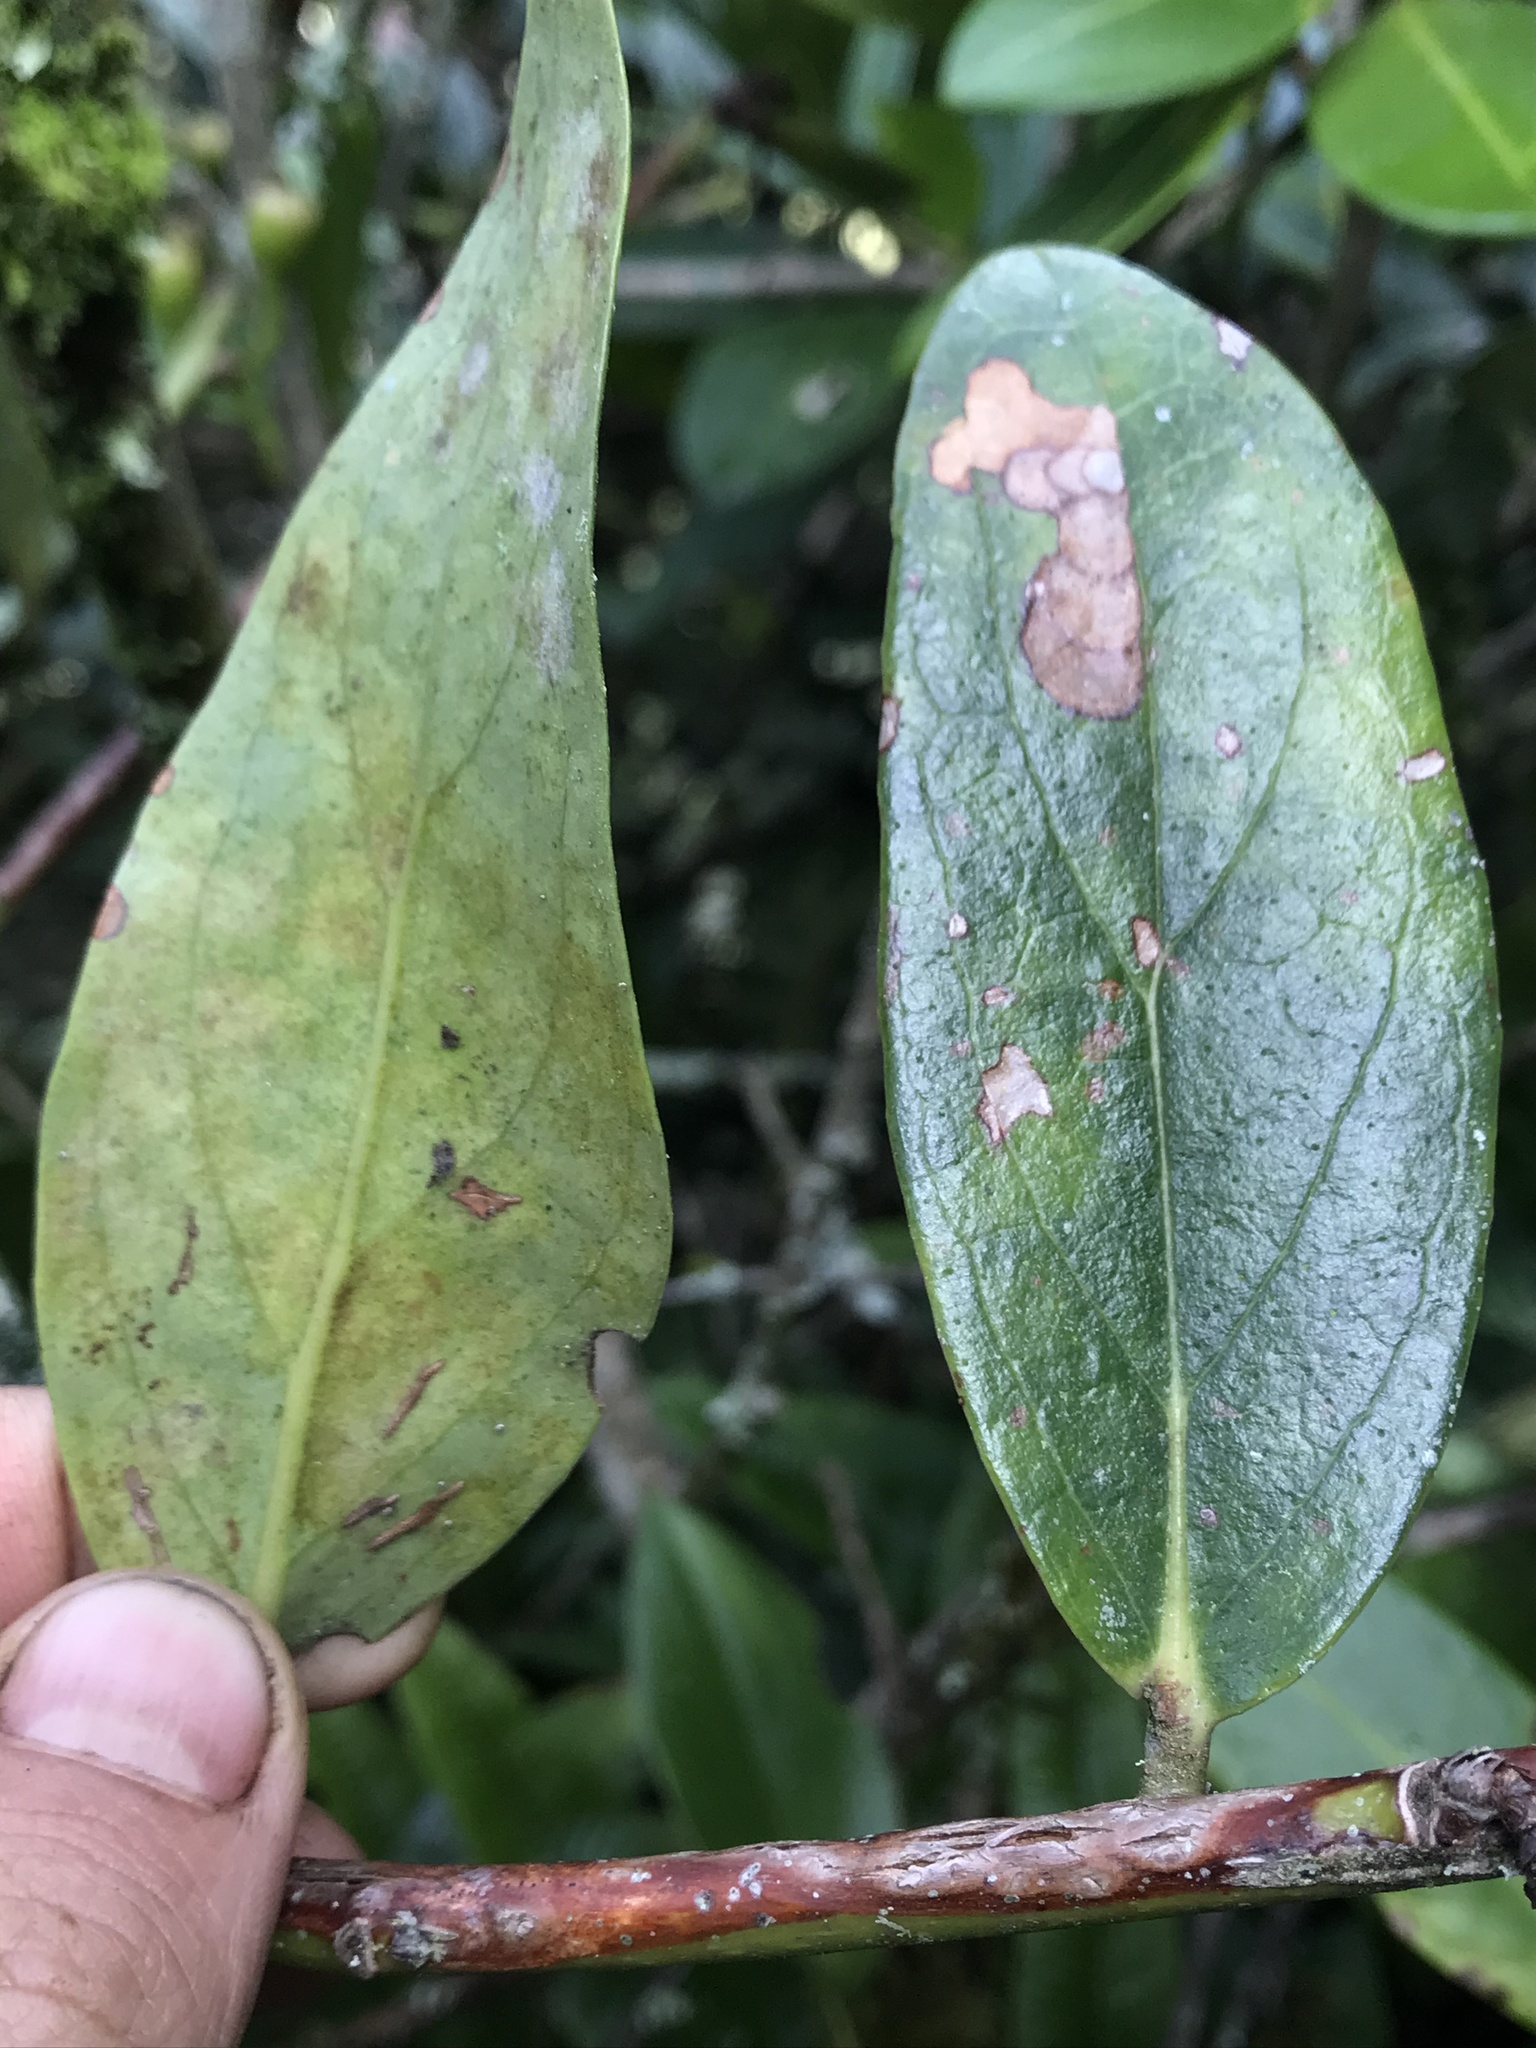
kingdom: Plantae
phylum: Tracheophyta
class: Magnoliopsida
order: Ericales
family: Ericaceae
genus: Macleania
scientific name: Macleania rupestris
